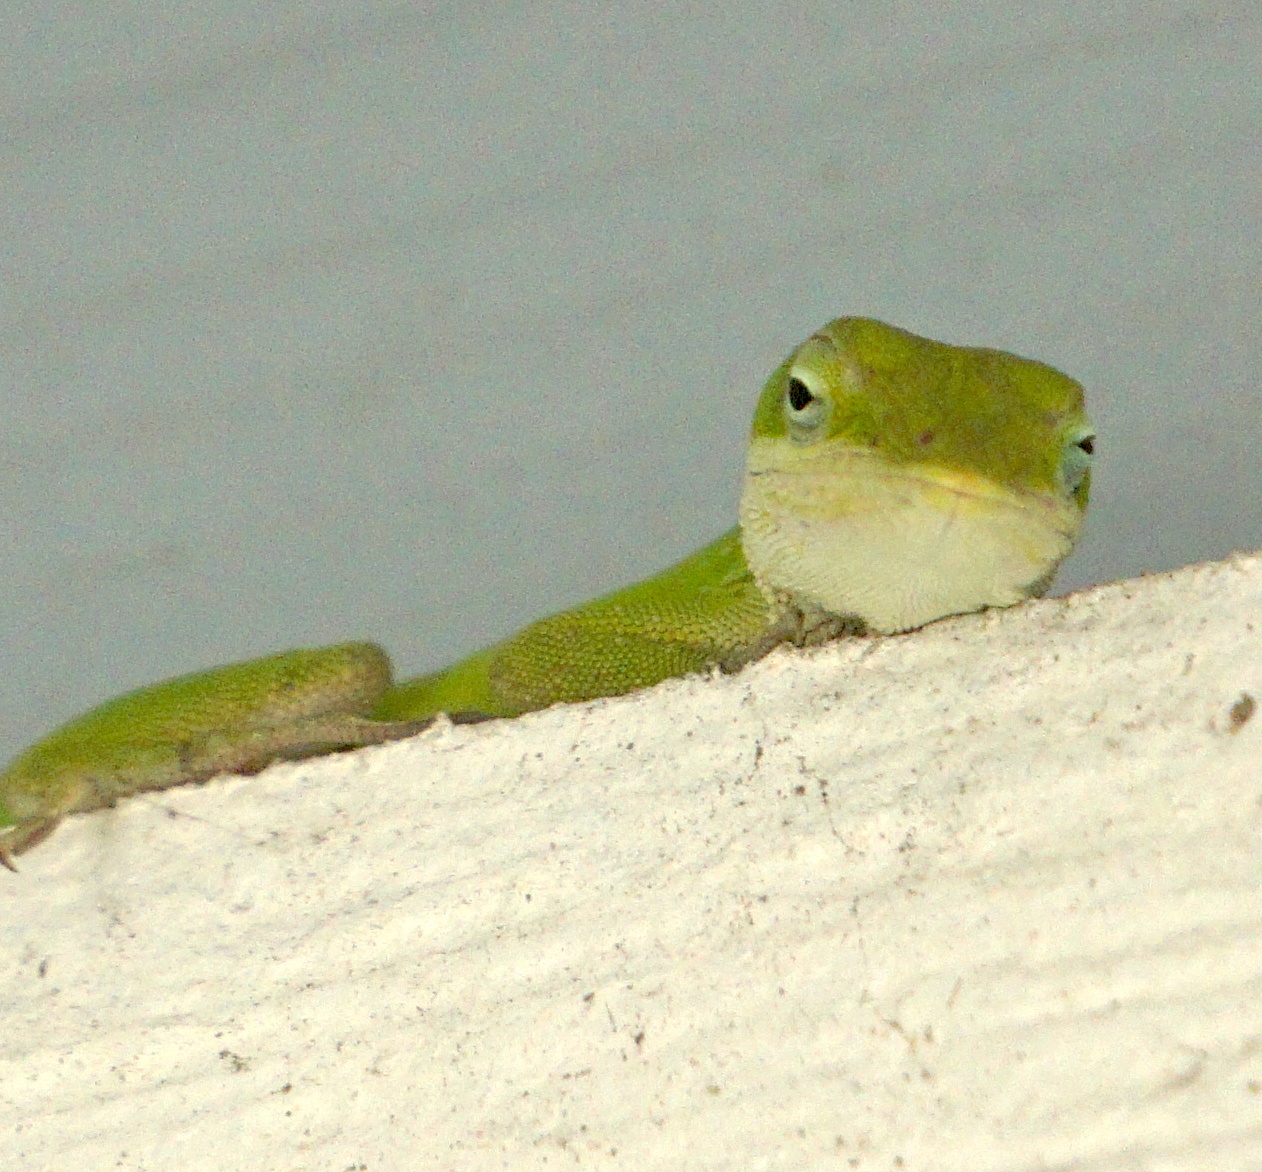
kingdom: Animalia
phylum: Chordata
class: Squamata
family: Dactyloidae
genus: Anolis
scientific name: Anolis carolinensis
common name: Green anole
